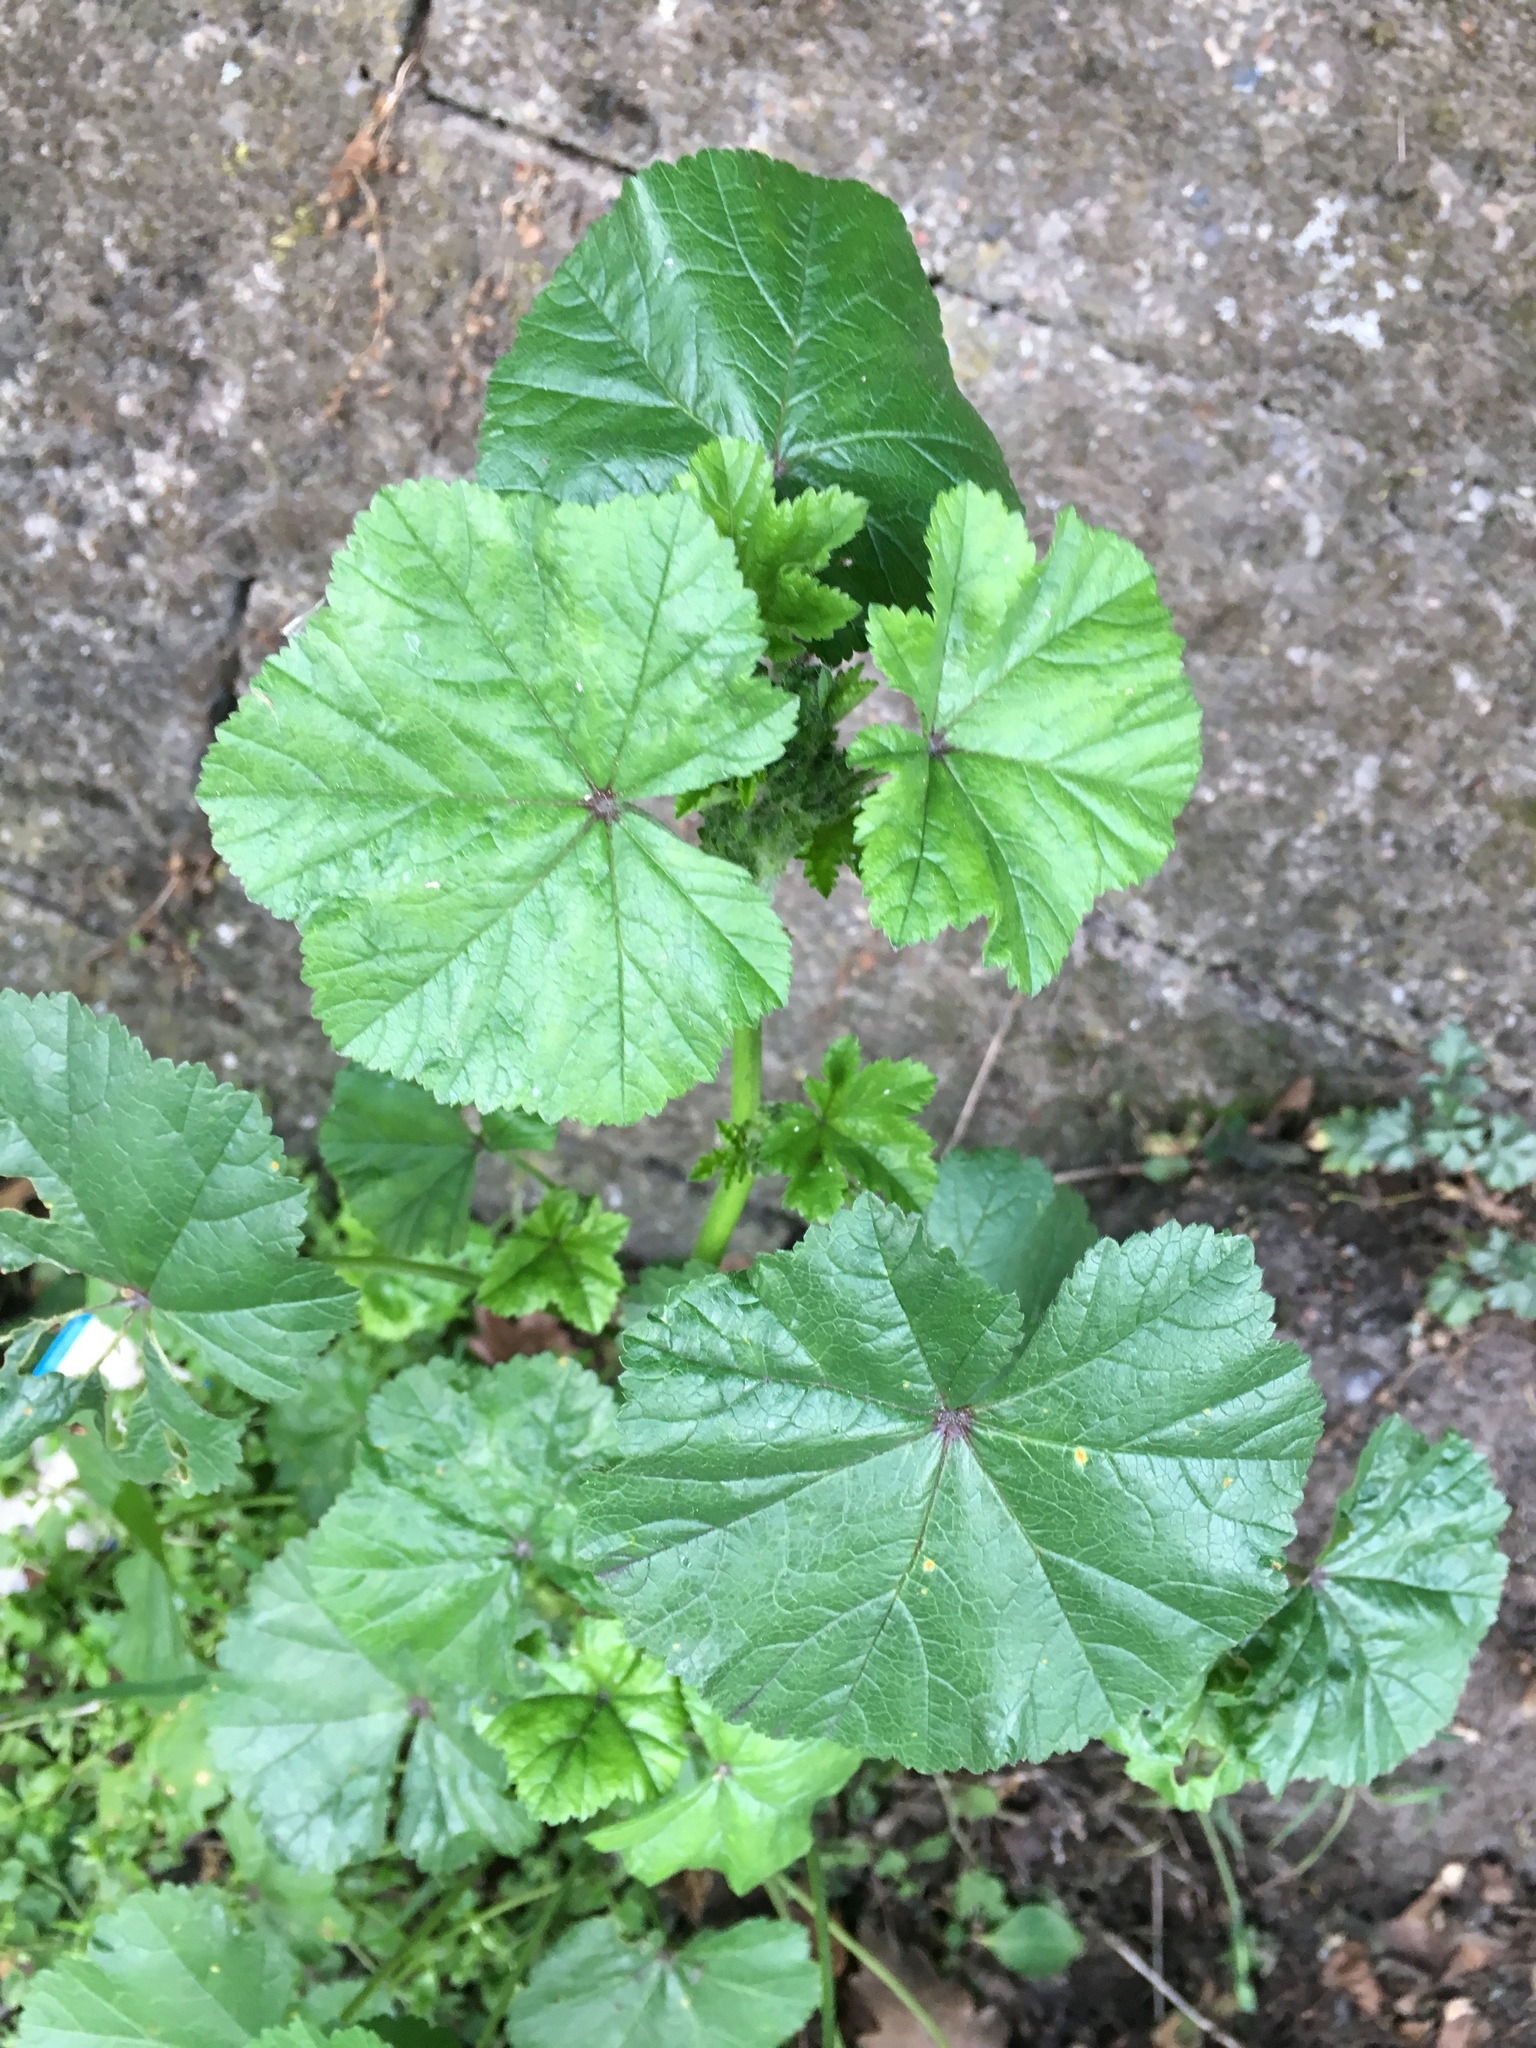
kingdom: Plantae
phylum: Tracheophyta
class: Magnoliopsida
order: Malvales
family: Malvaceae
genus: Malva
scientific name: Malva neglecta
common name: Common mallow
